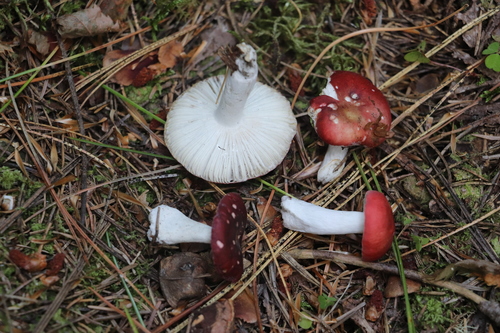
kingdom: Fungi
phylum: Basidiomycota
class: Agaricomycetes
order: Russulales
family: Russulaceae
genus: Russula
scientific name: Russula hydrophila
